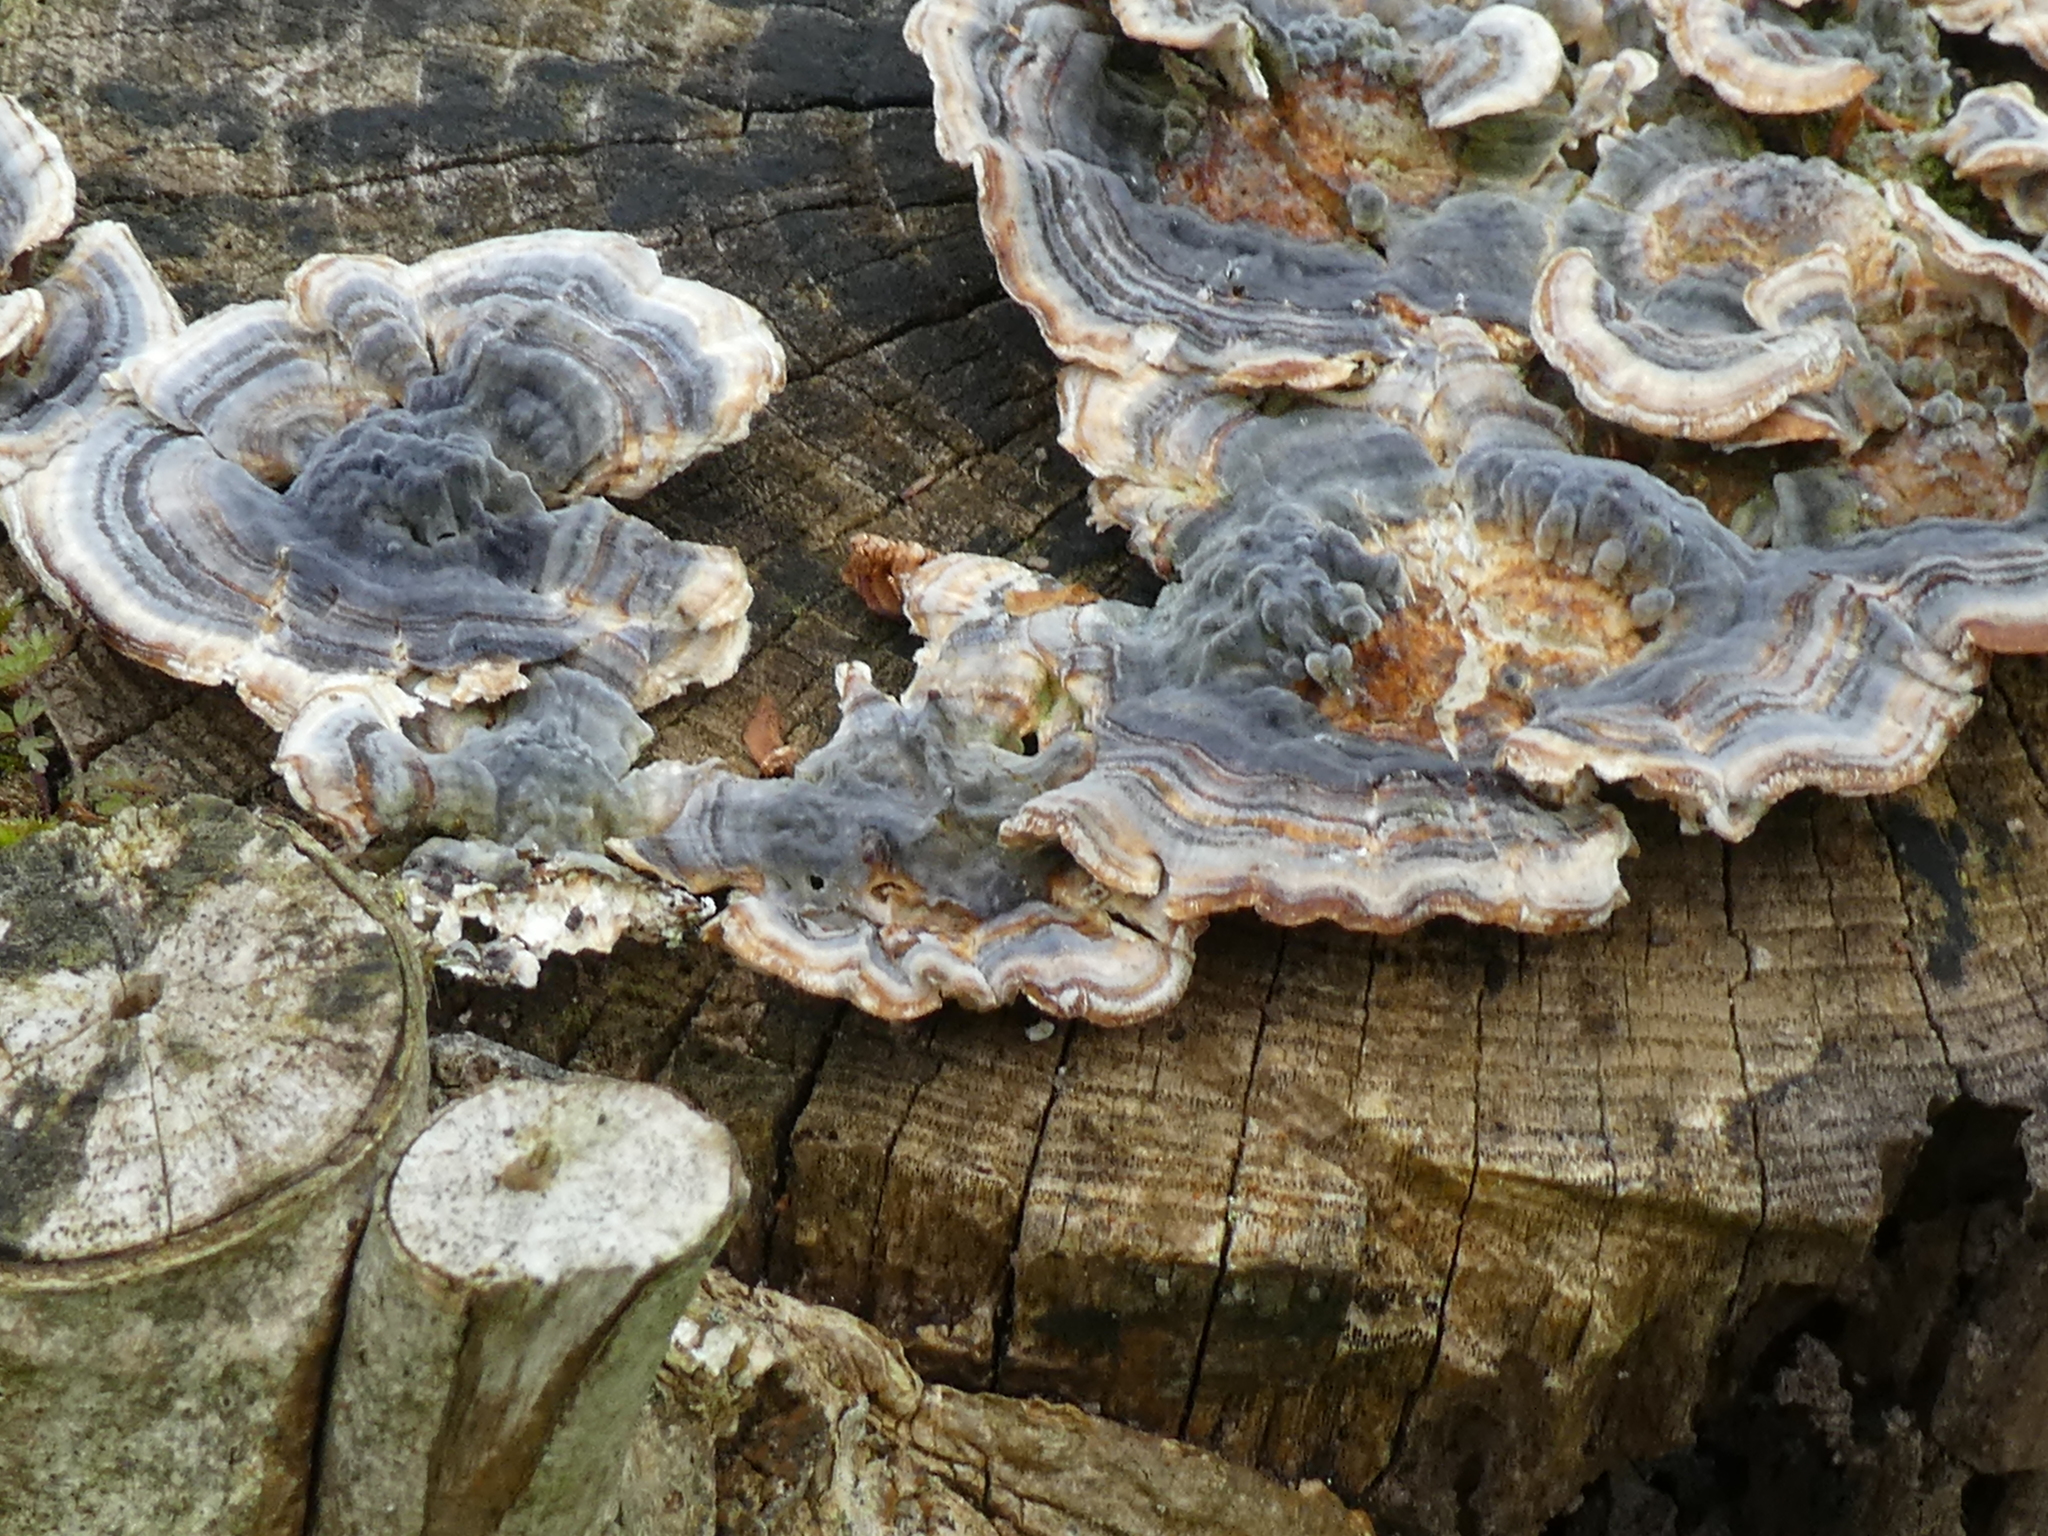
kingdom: Fungi
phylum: Basidiomycota
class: Agaricomycetes
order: Polyporales
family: Polyporaceae
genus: Trametes
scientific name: Trametes versicolor
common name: Turkeytail
